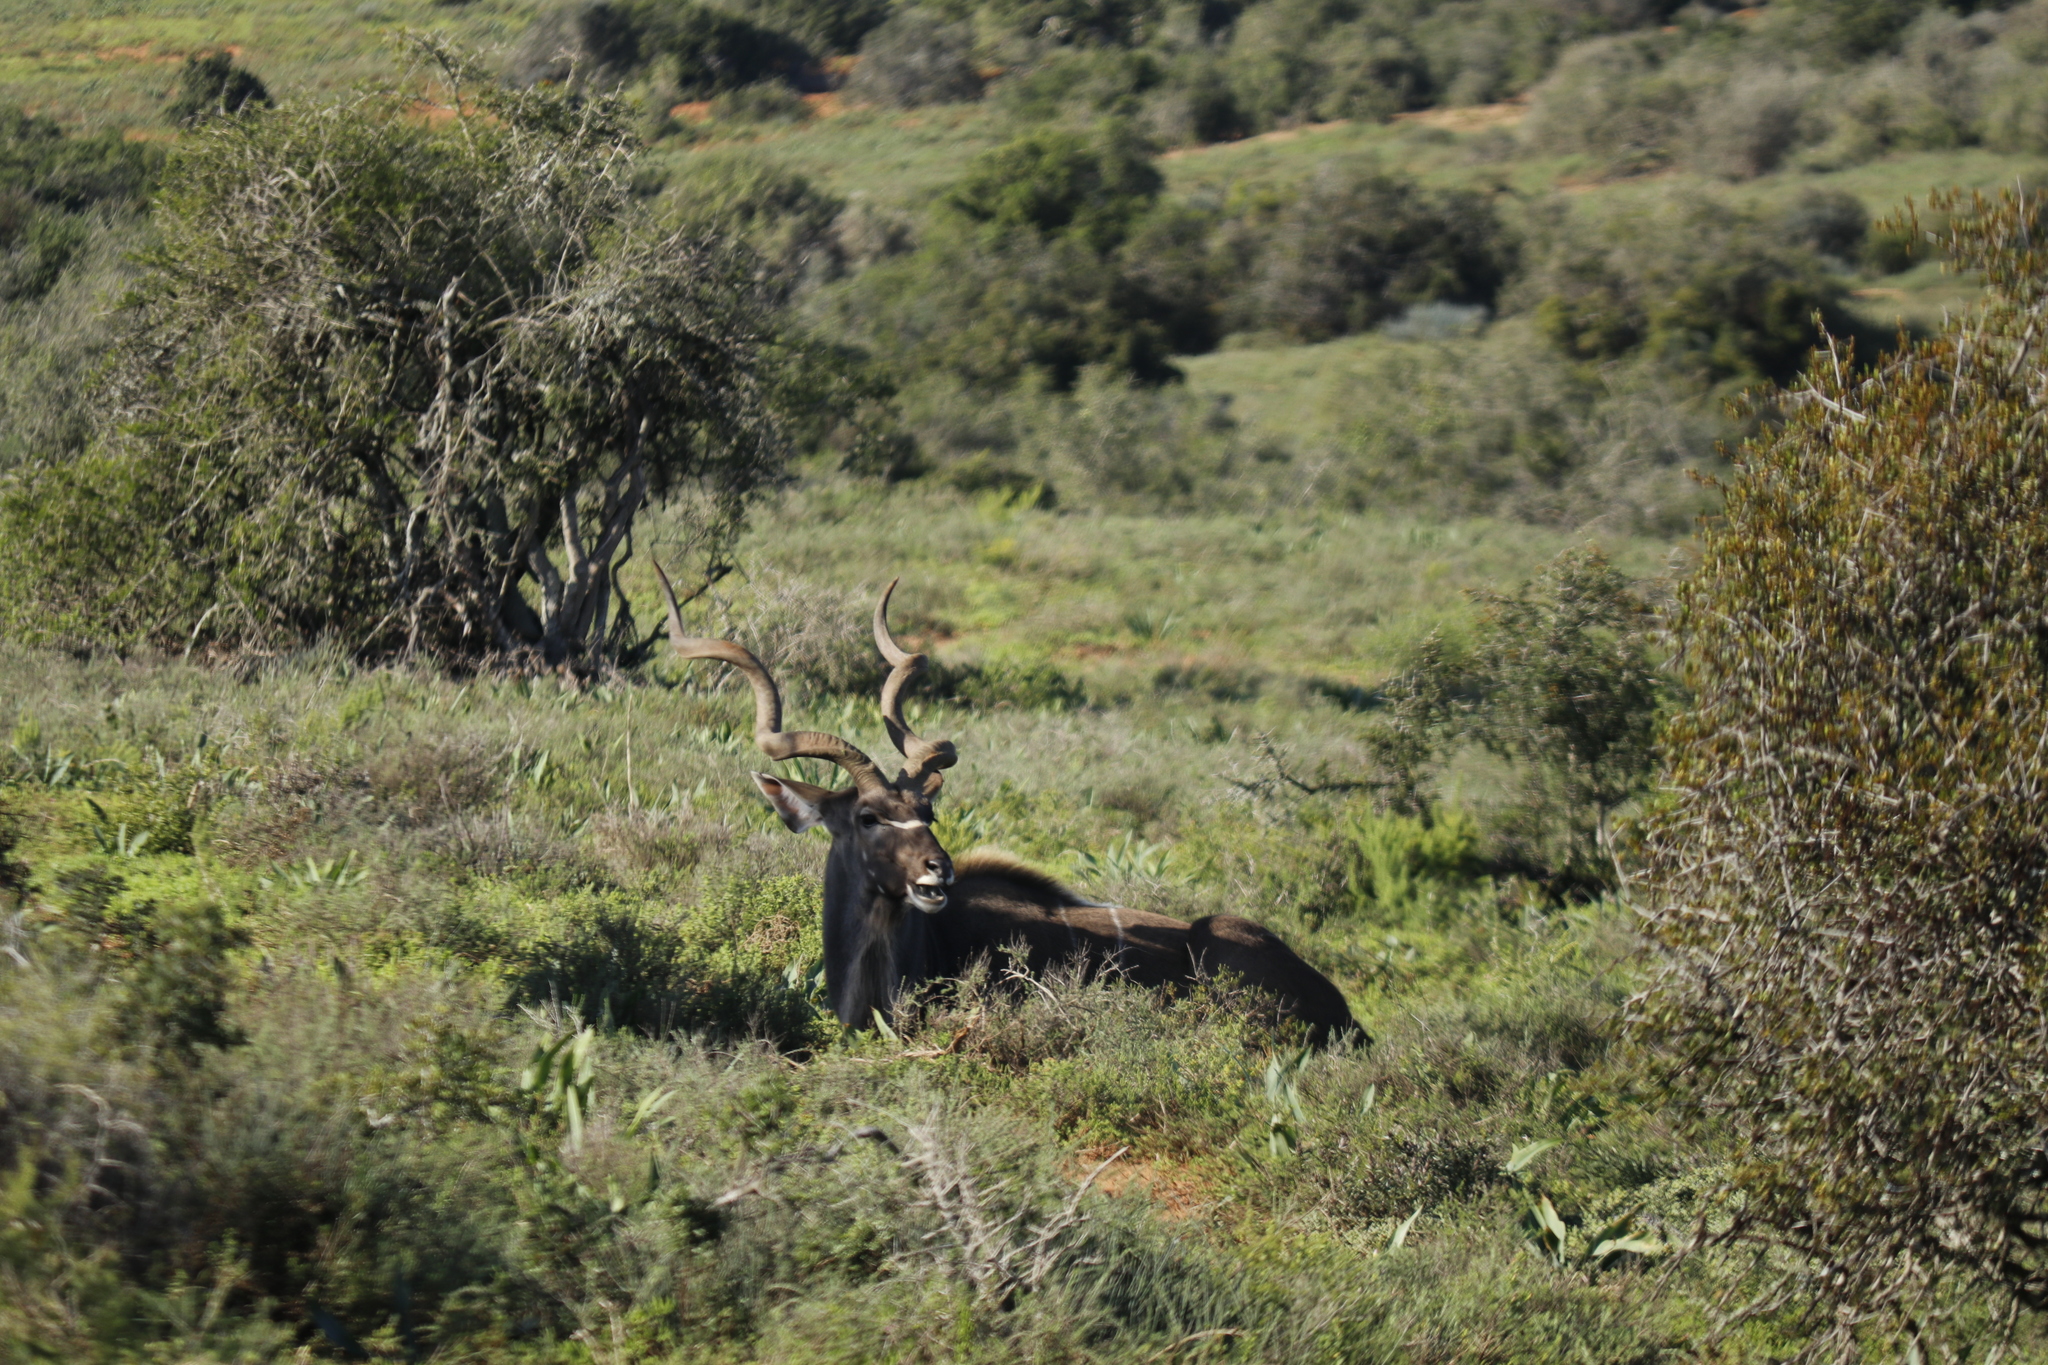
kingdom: Animalia
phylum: Chordata
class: Mammalia
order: Artiodactyla
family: Bovidae
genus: Tragelaphus
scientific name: Tragelaphus strepsiceros
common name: Greater kudu
